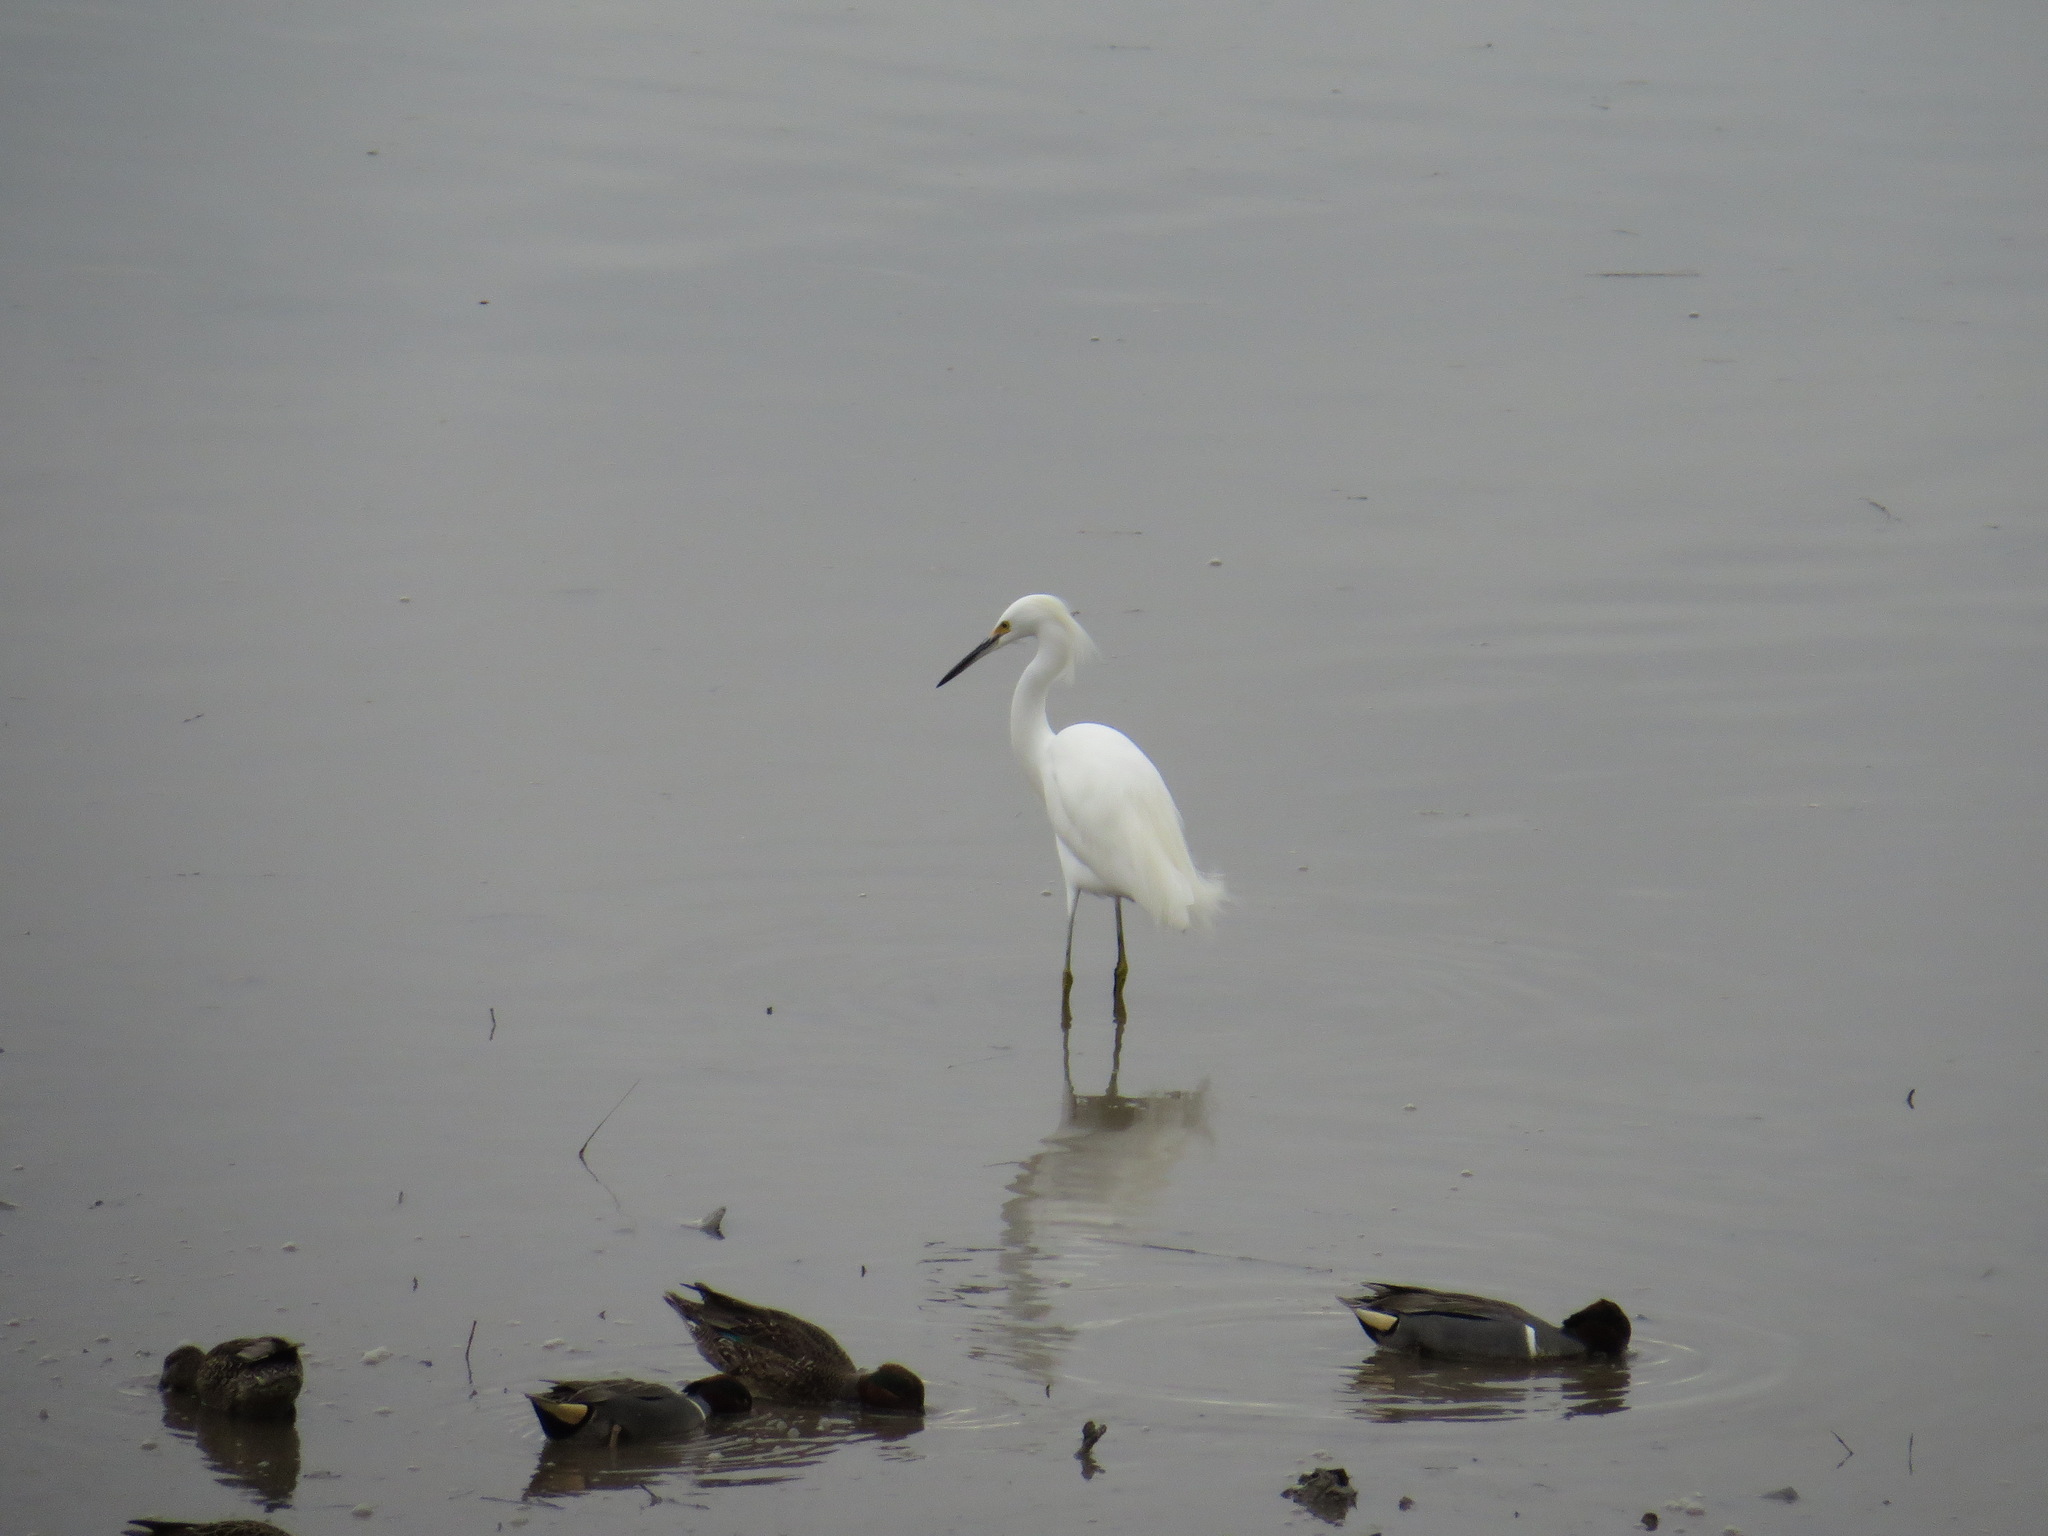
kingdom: Animalia
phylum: Chordata
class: Aves
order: Pelecaniformes
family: Ardeidae
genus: Egretta
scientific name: Egretta thula
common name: Snowy egret
